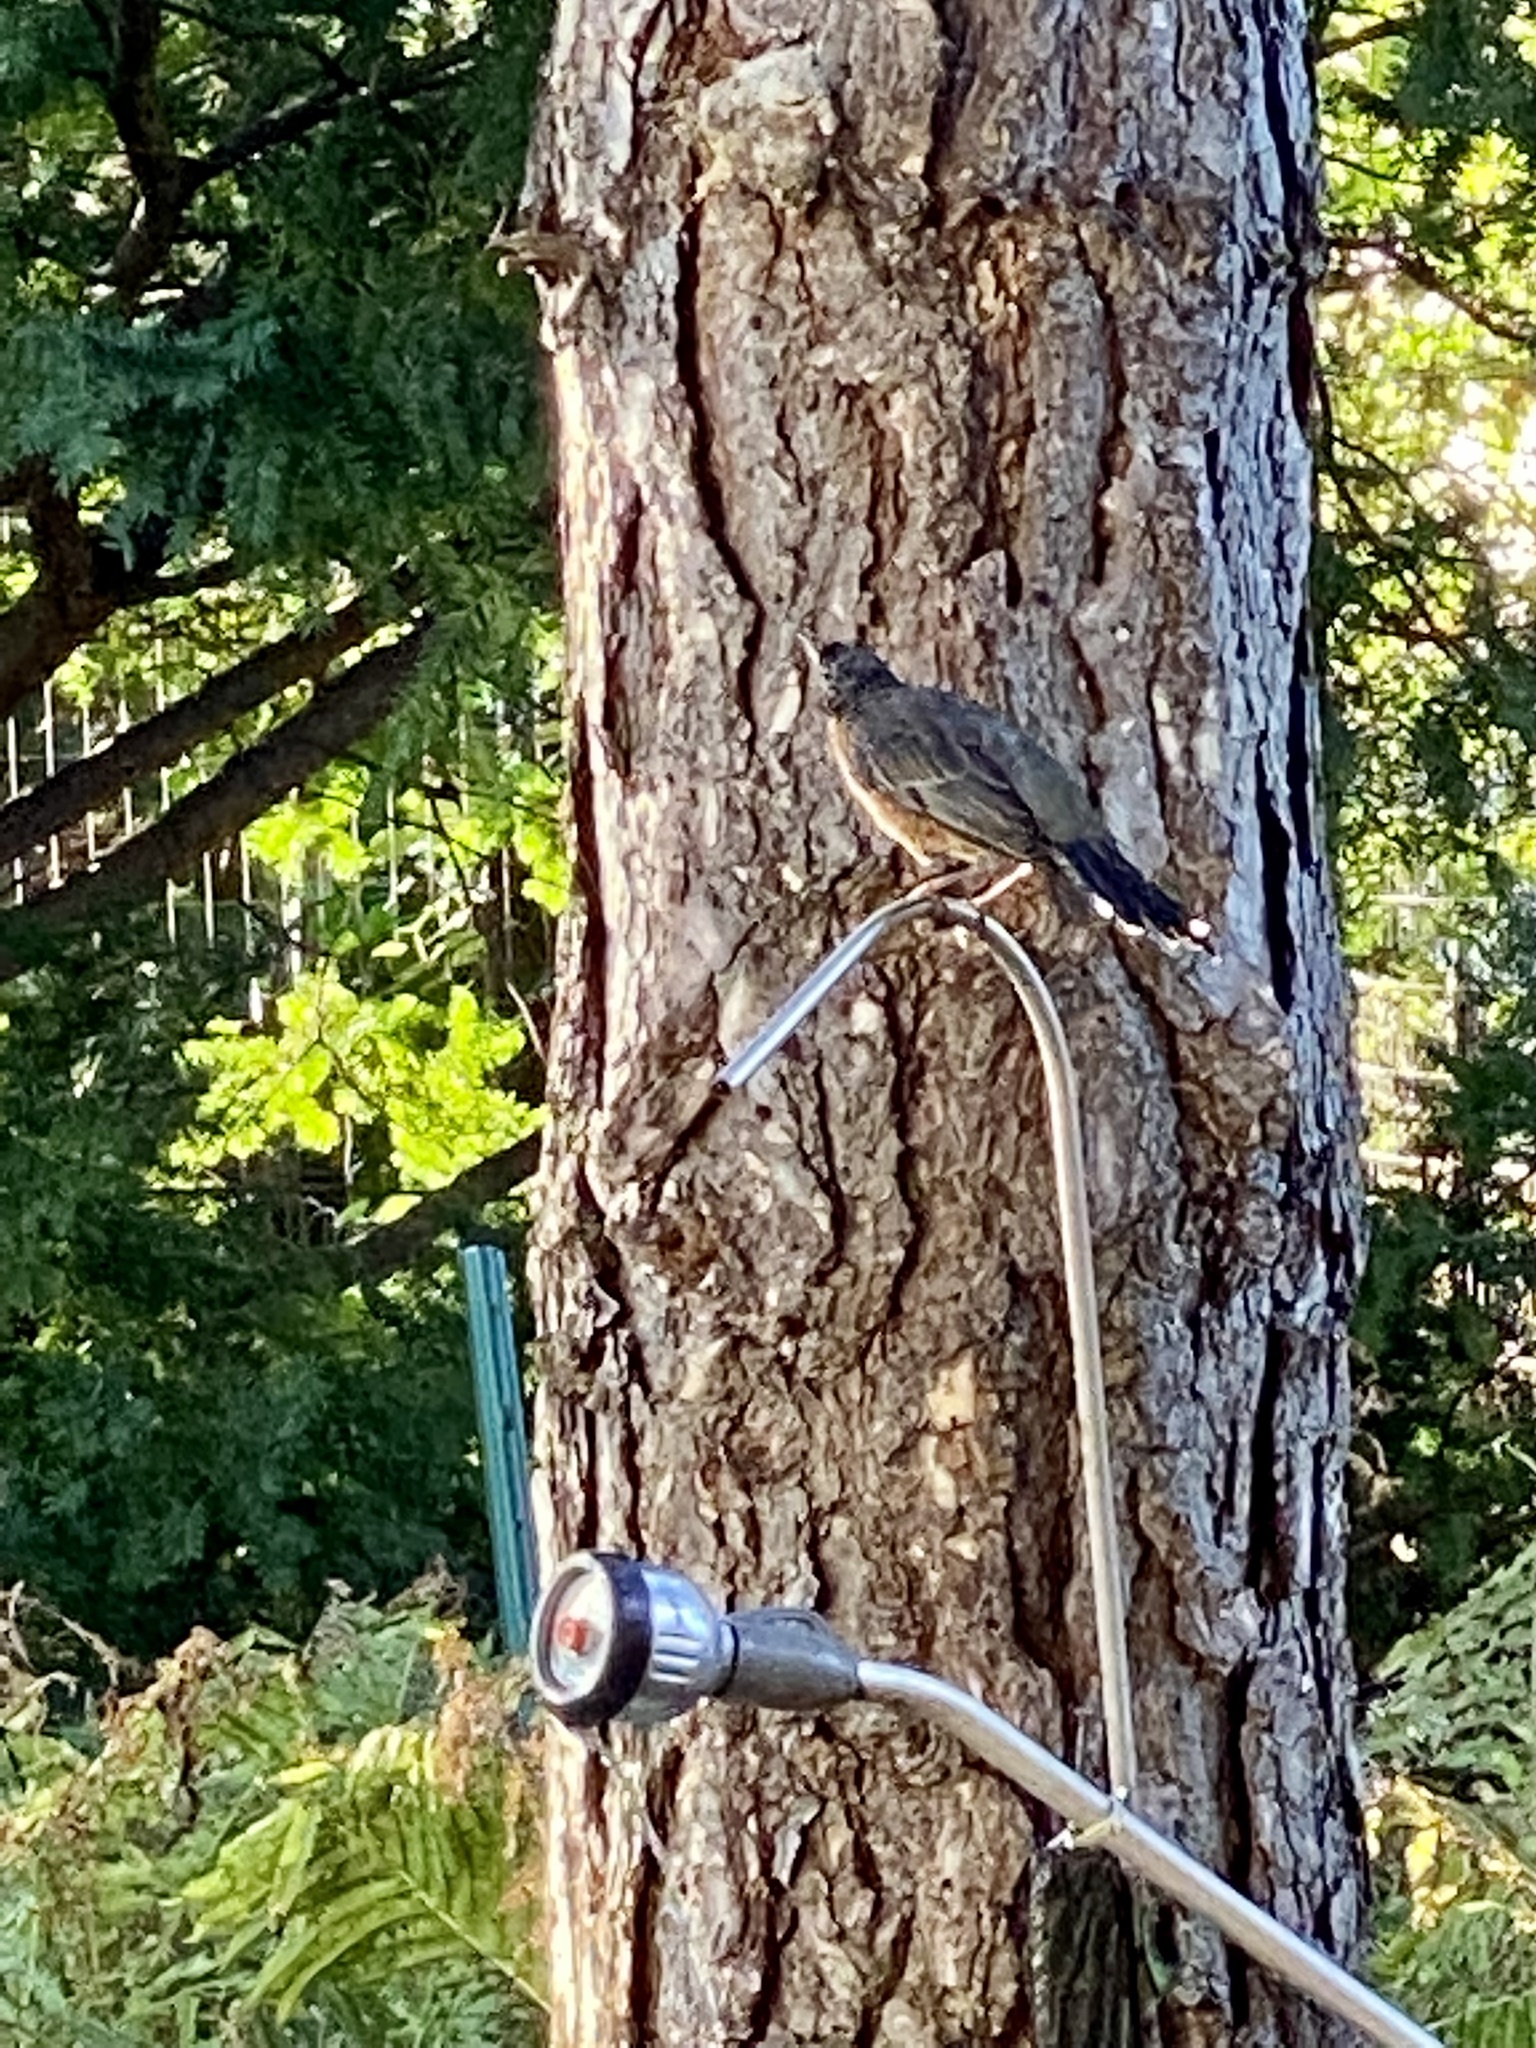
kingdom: Animalia
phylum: Chordata
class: Aves
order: Passeriformes
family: Turdidae
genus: Turdus
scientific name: Turdus migratorius
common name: American robin
